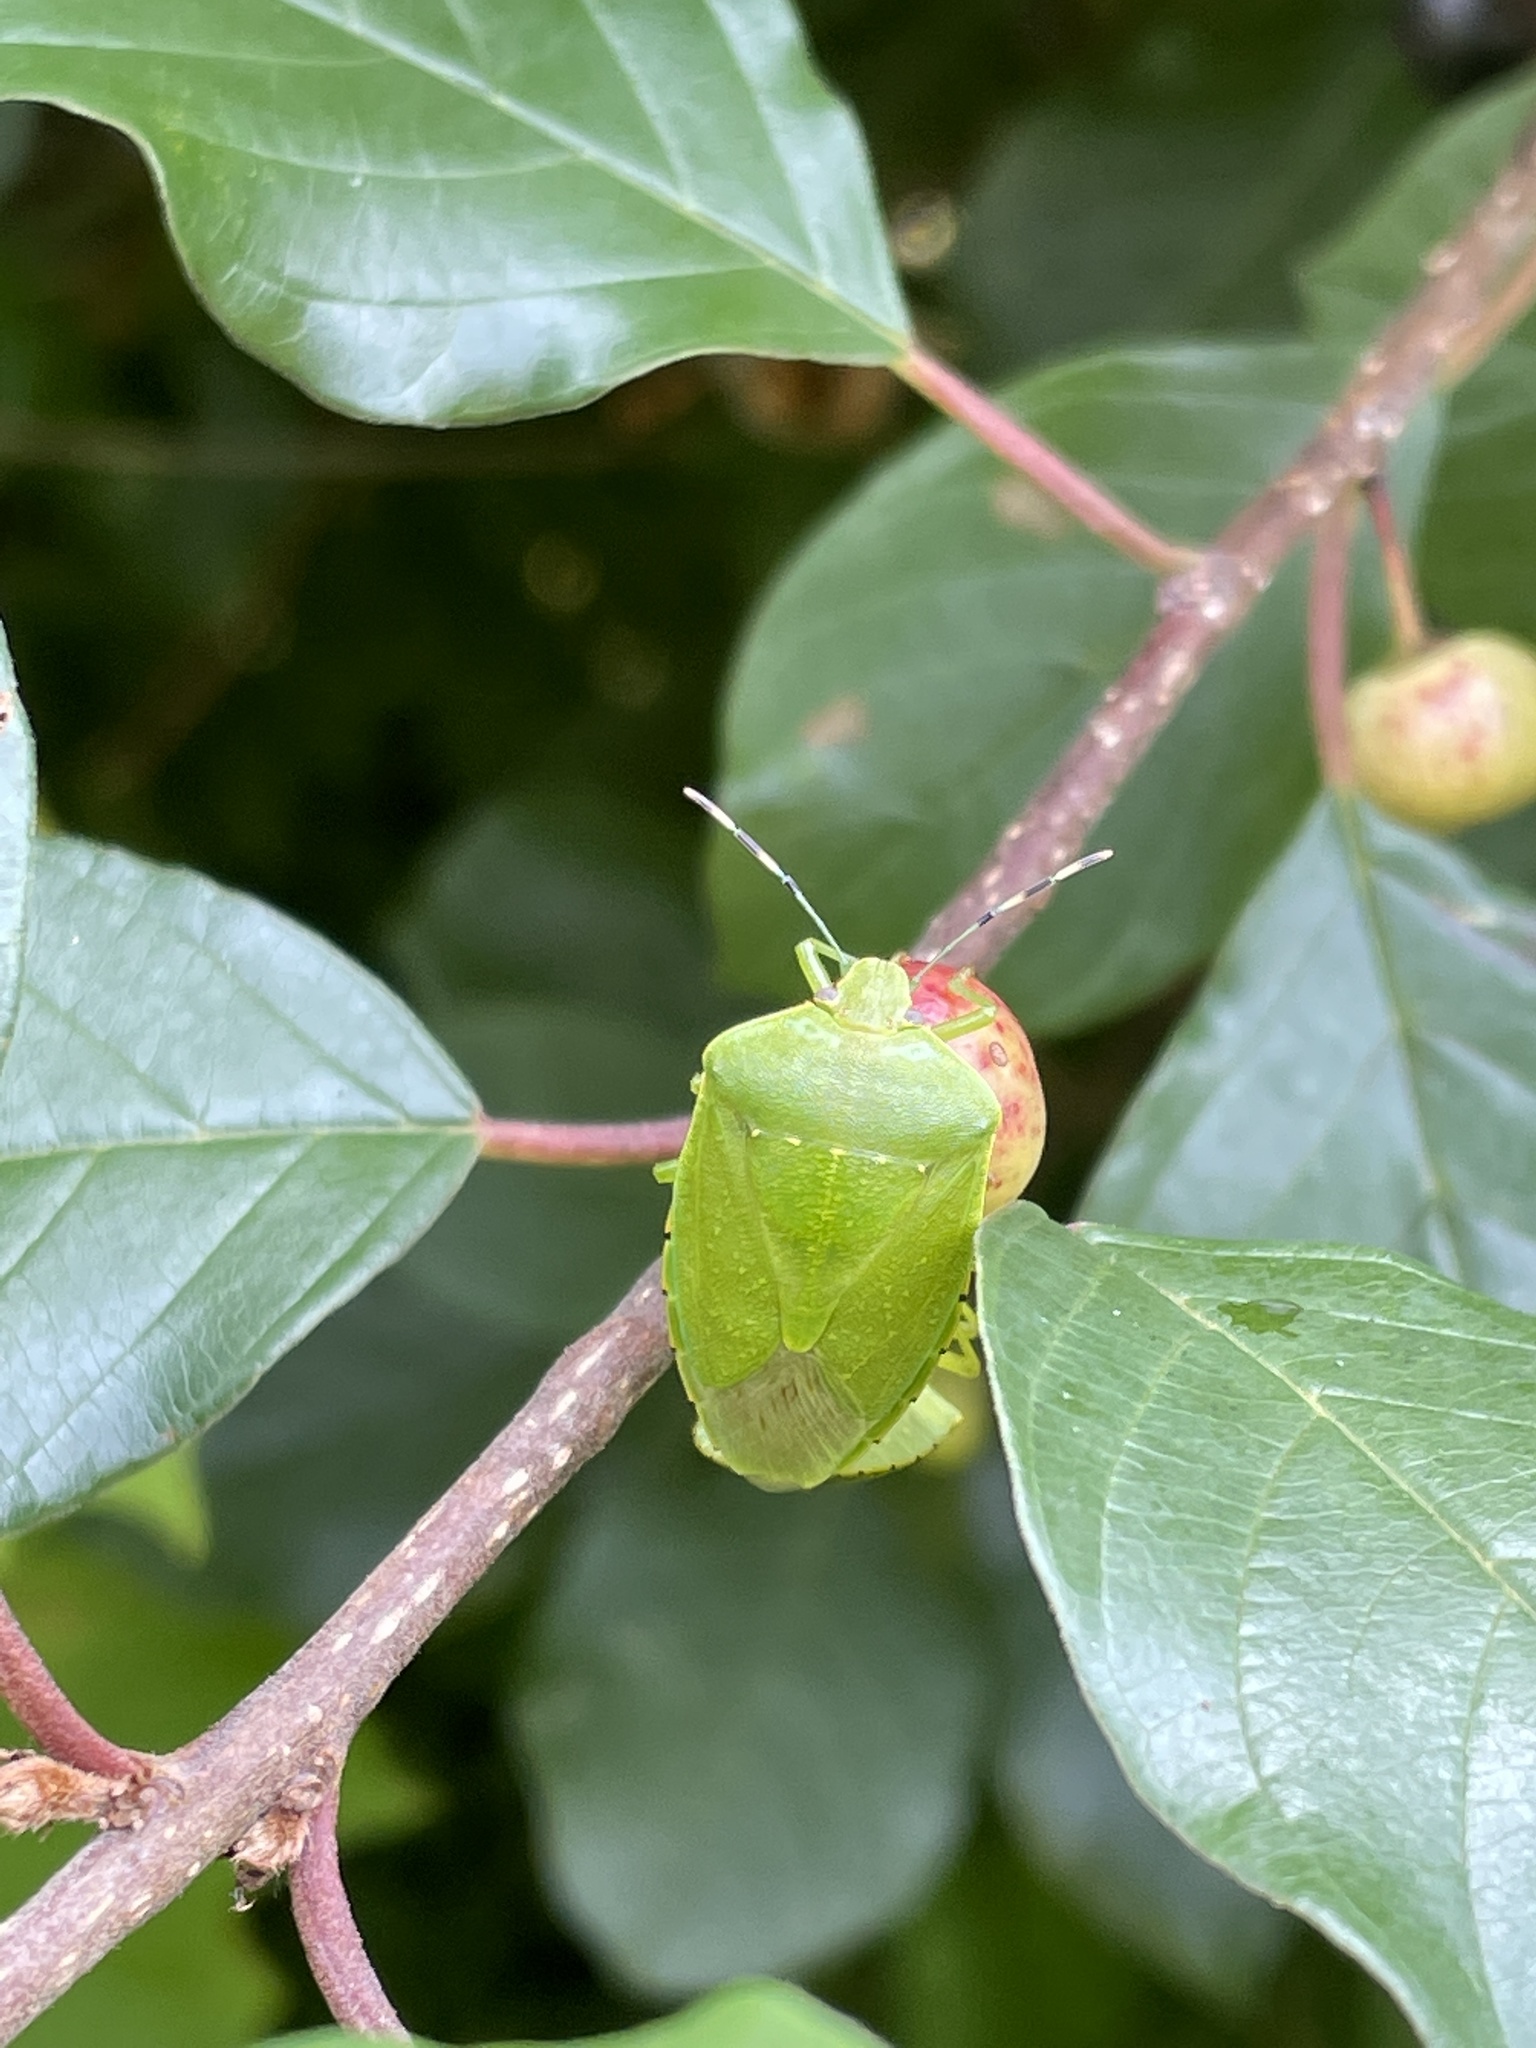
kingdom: Animalia
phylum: Arthropoda
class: Insecta
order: Hemiptera
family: Pentatomidae
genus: Chinavia
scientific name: Chinavia hilaris
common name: Green stink bug
